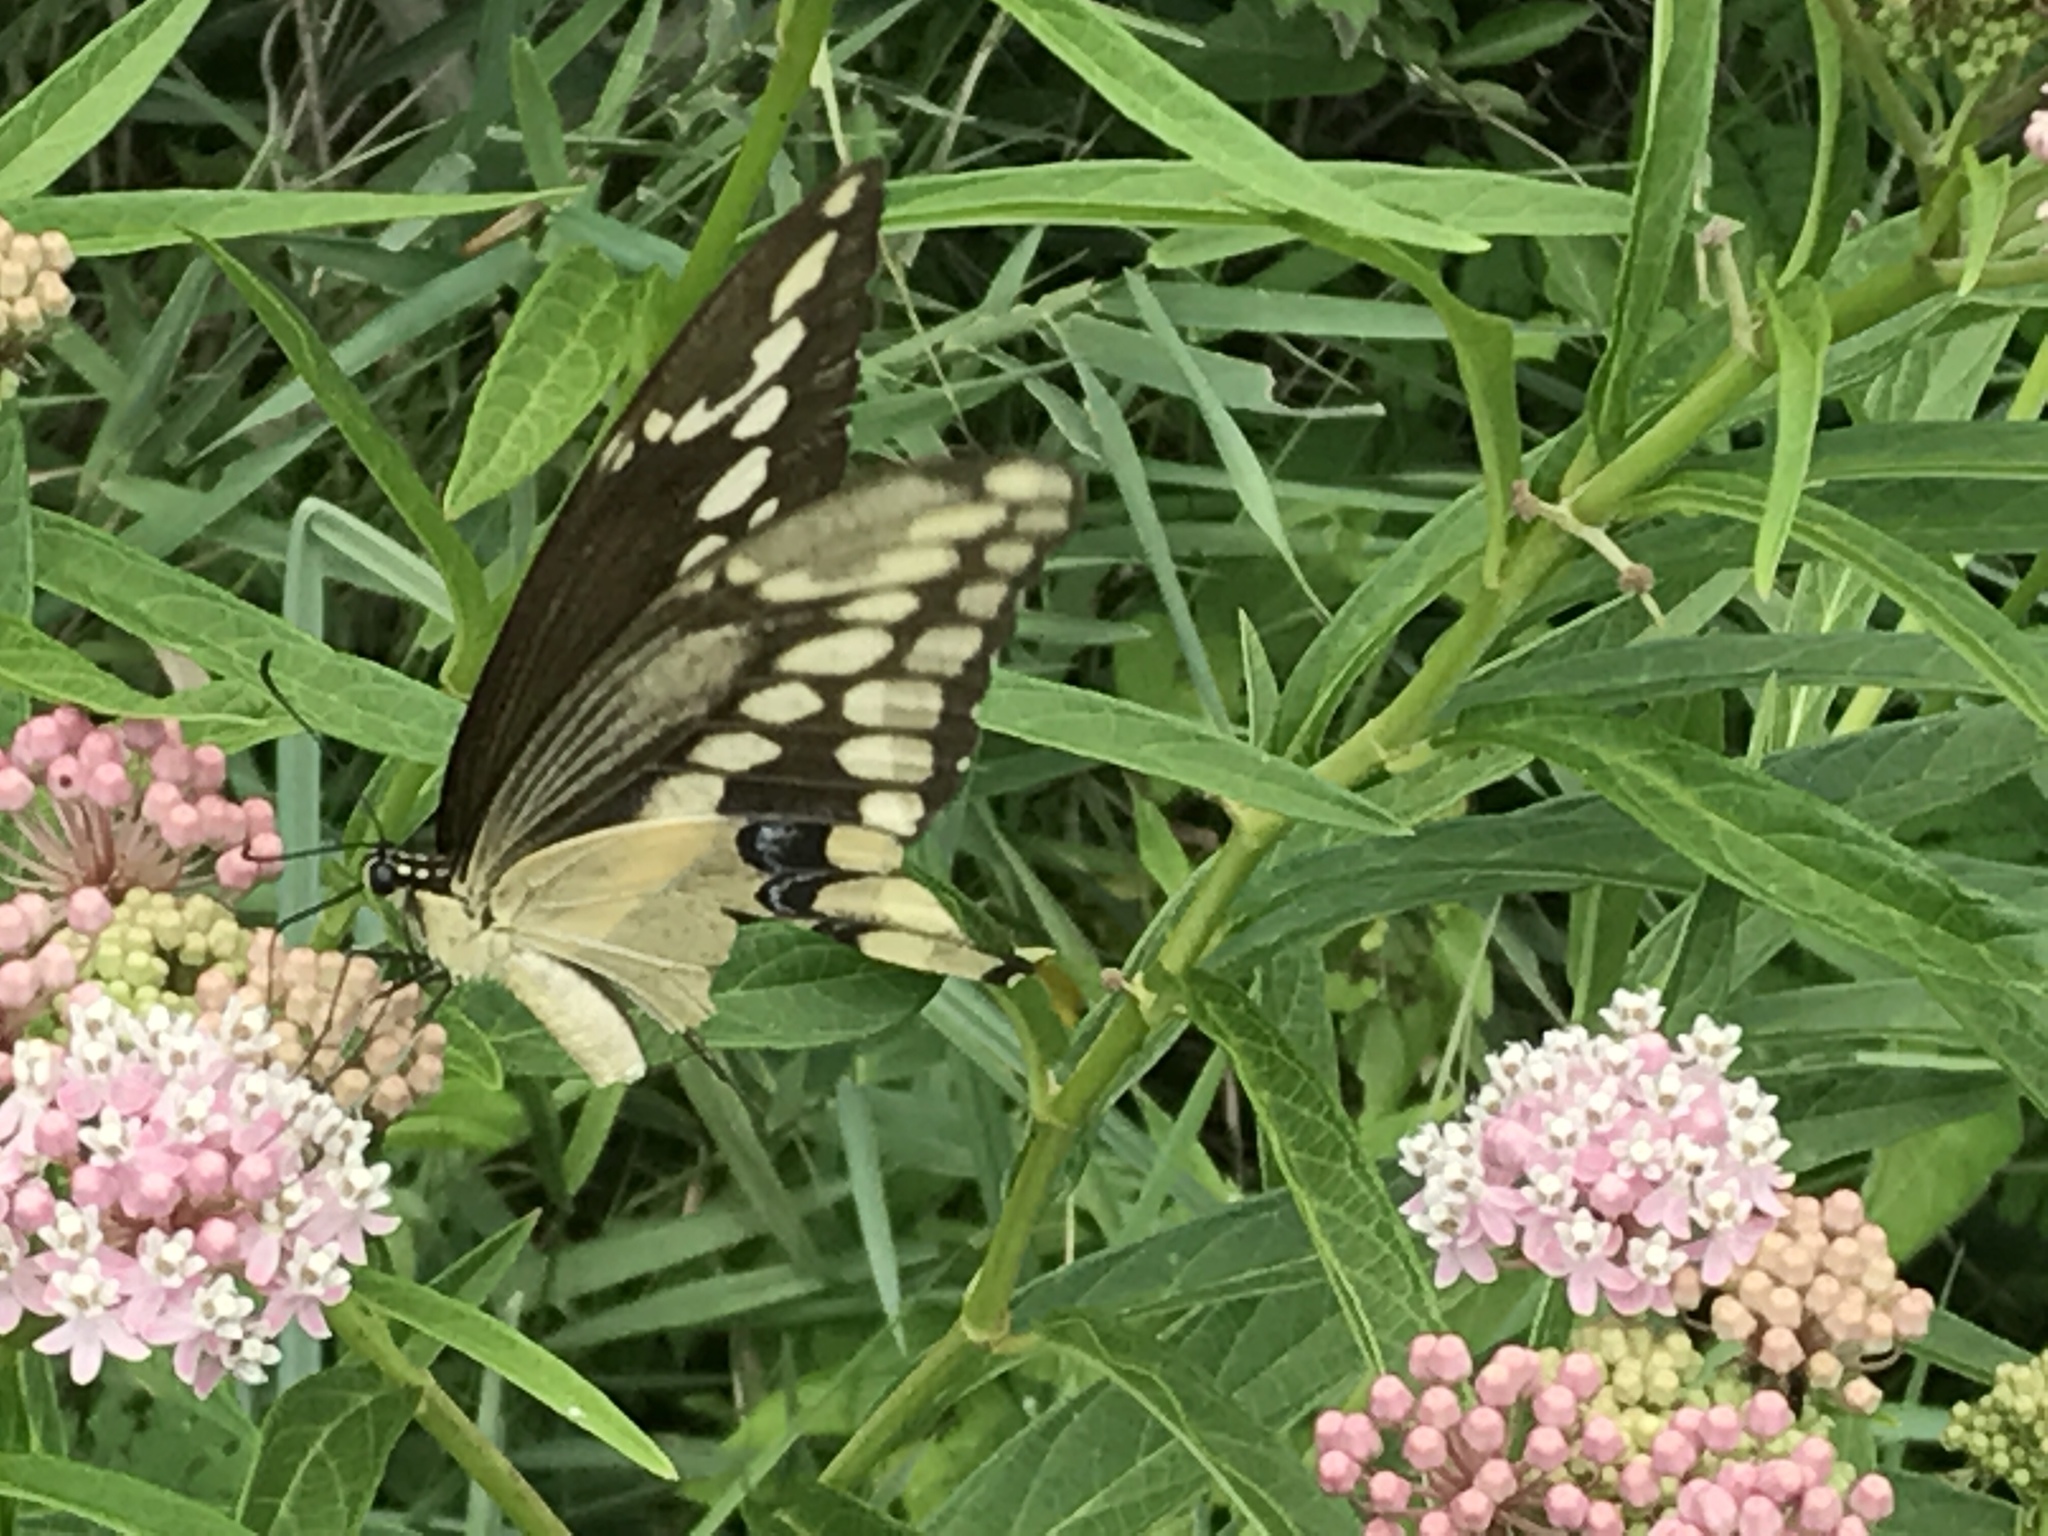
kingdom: Animalia
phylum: Arthropoda
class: Insecta
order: Lepidoptera
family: Papilionidae
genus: Papilio
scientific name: Papilio cresphontes
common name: Giant swallowtail
